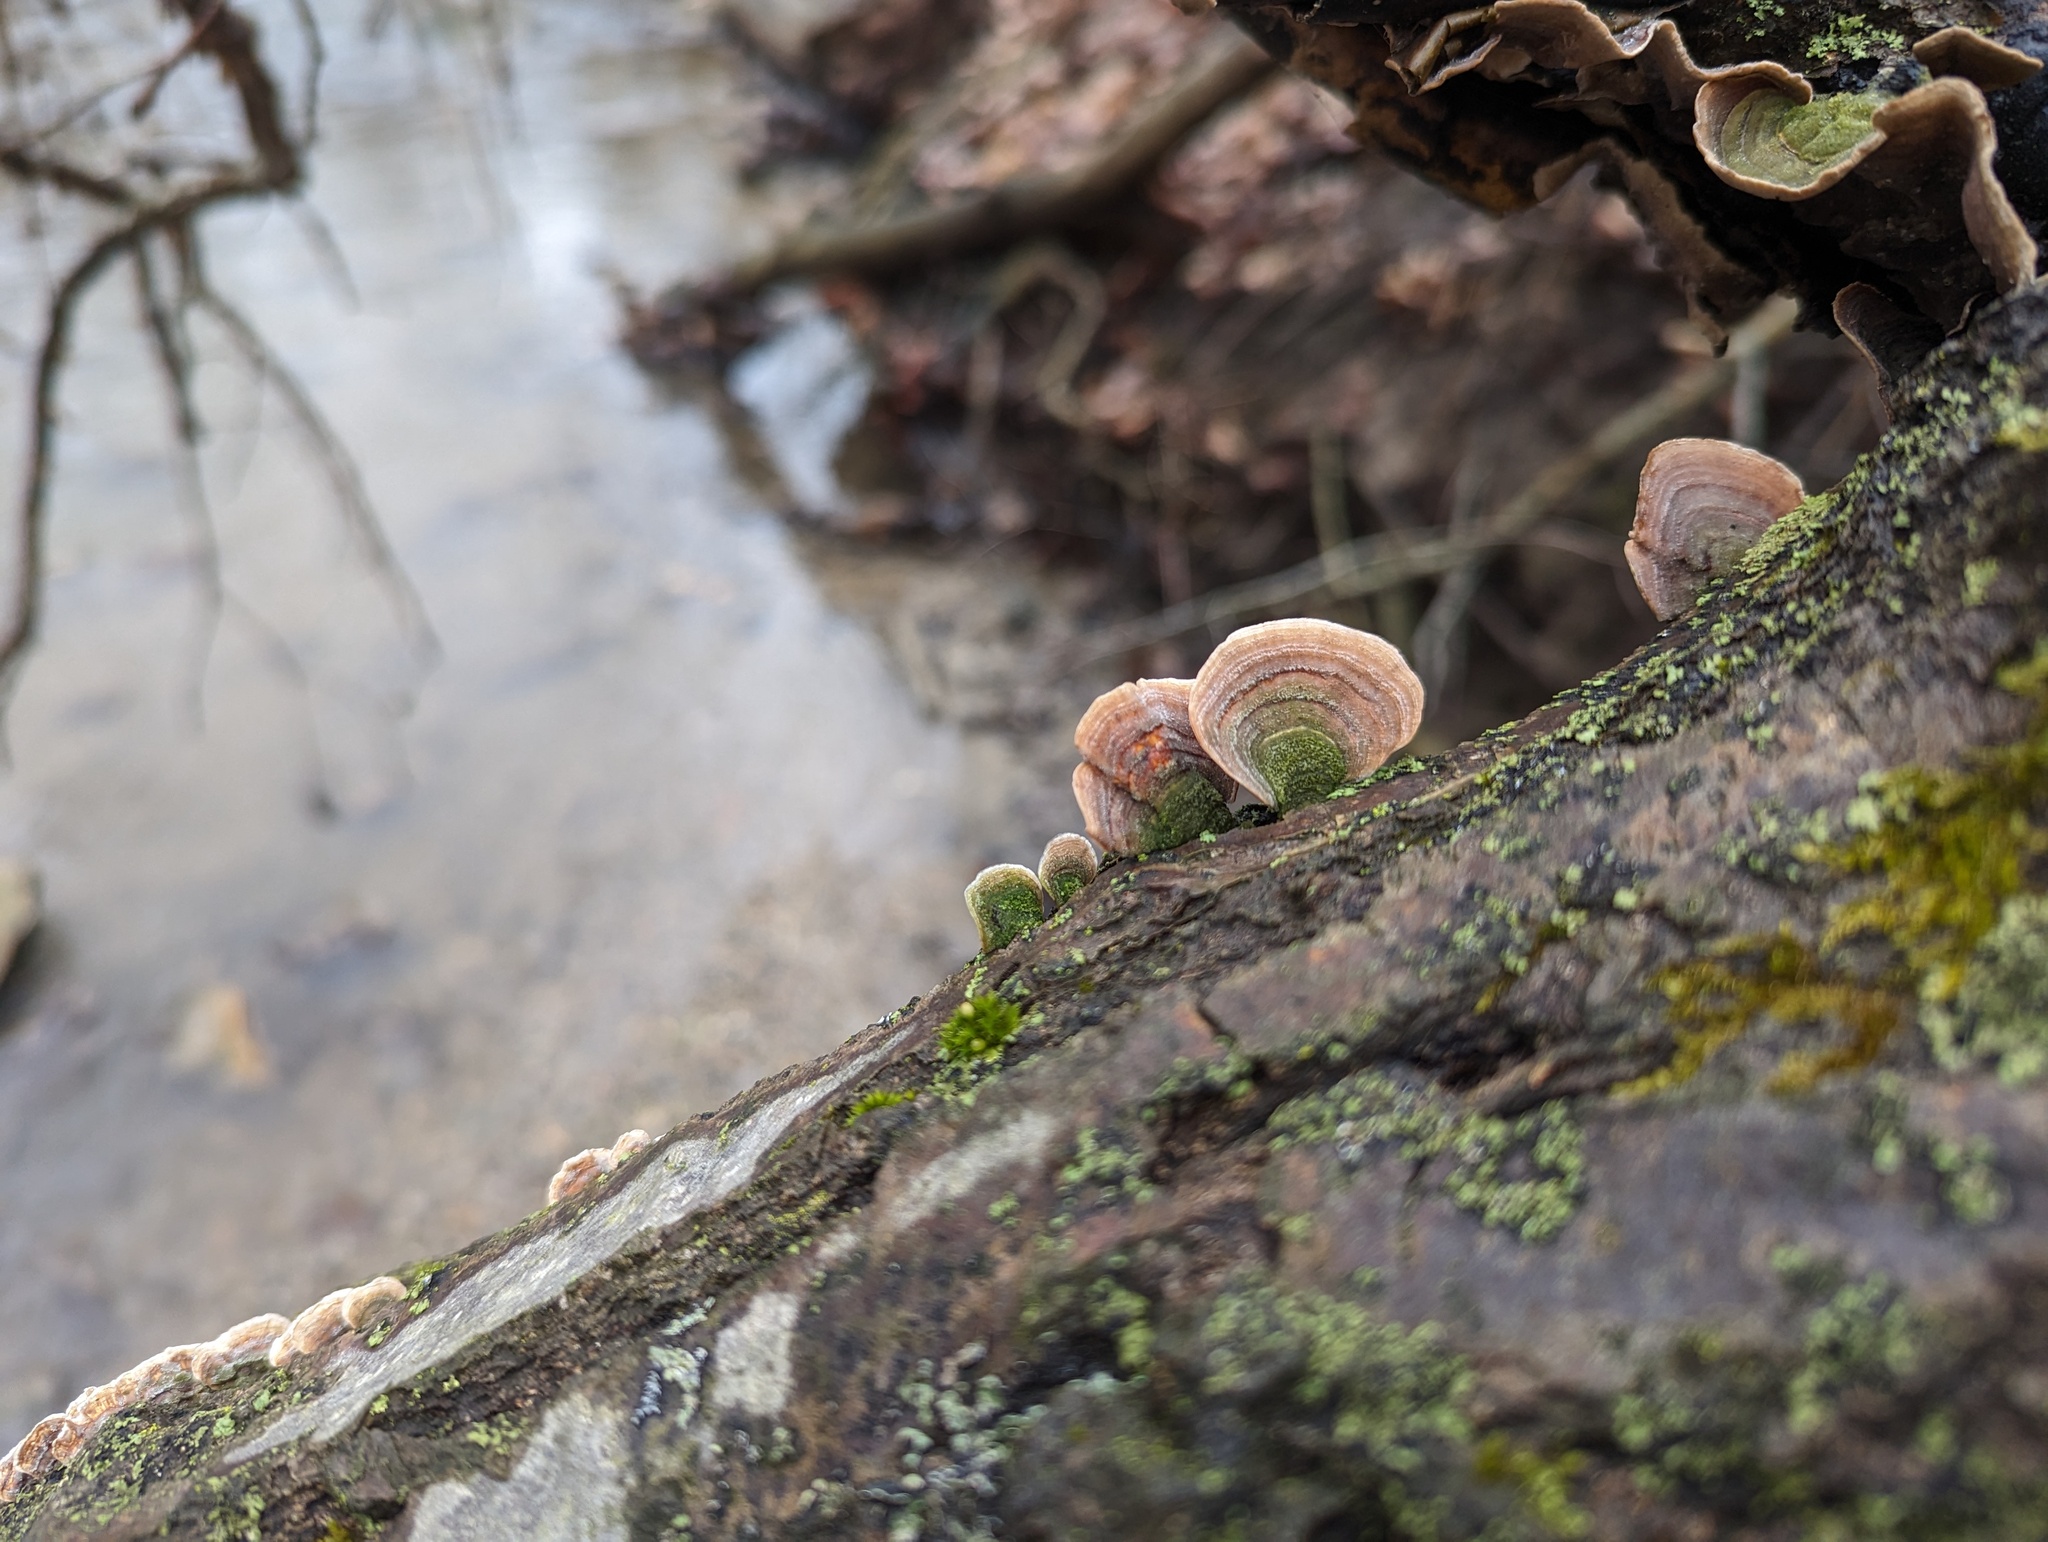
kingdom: Fungi
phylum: Basidiomycota
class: Agaricomycetes
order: Russulales
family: Stereaceae
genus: Stereum
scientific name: Stereum ostrea
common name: False turkeytail
